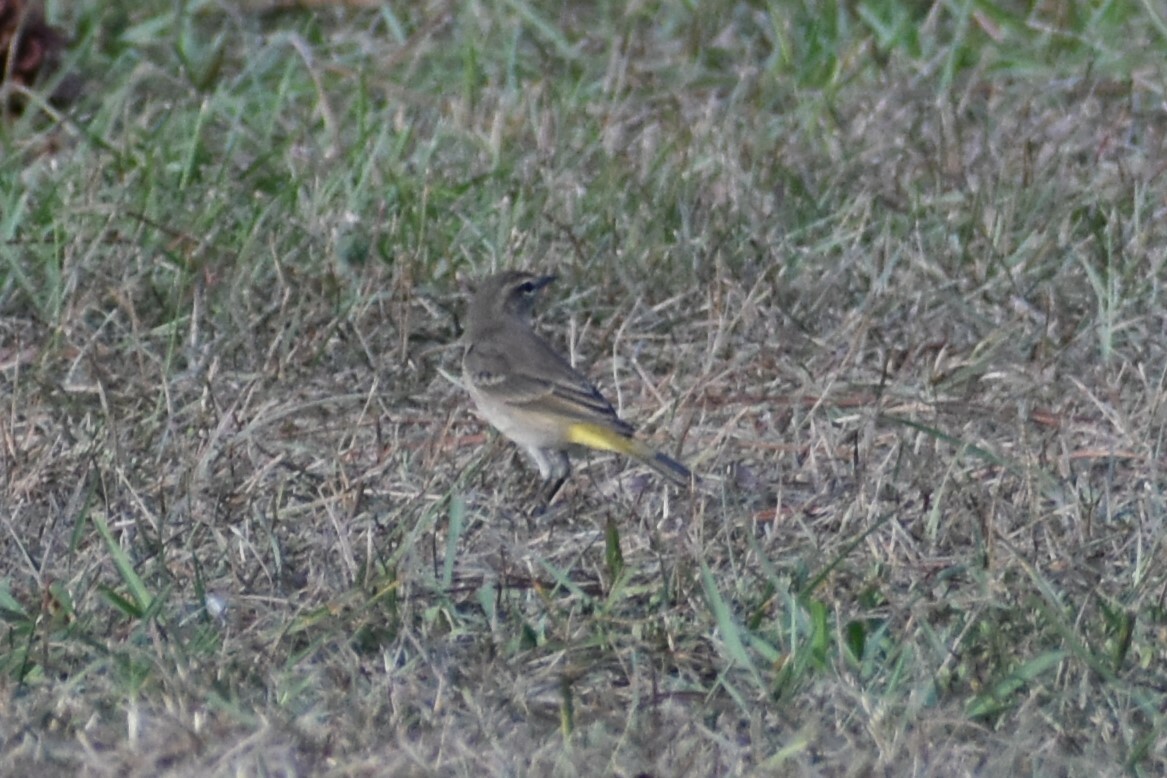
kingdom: Animalia
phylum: Chordata
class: Aves
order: Passeriformes
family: Parulidae
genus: Setophaga
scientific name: Setophaga palmarum
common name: Palm warbler
